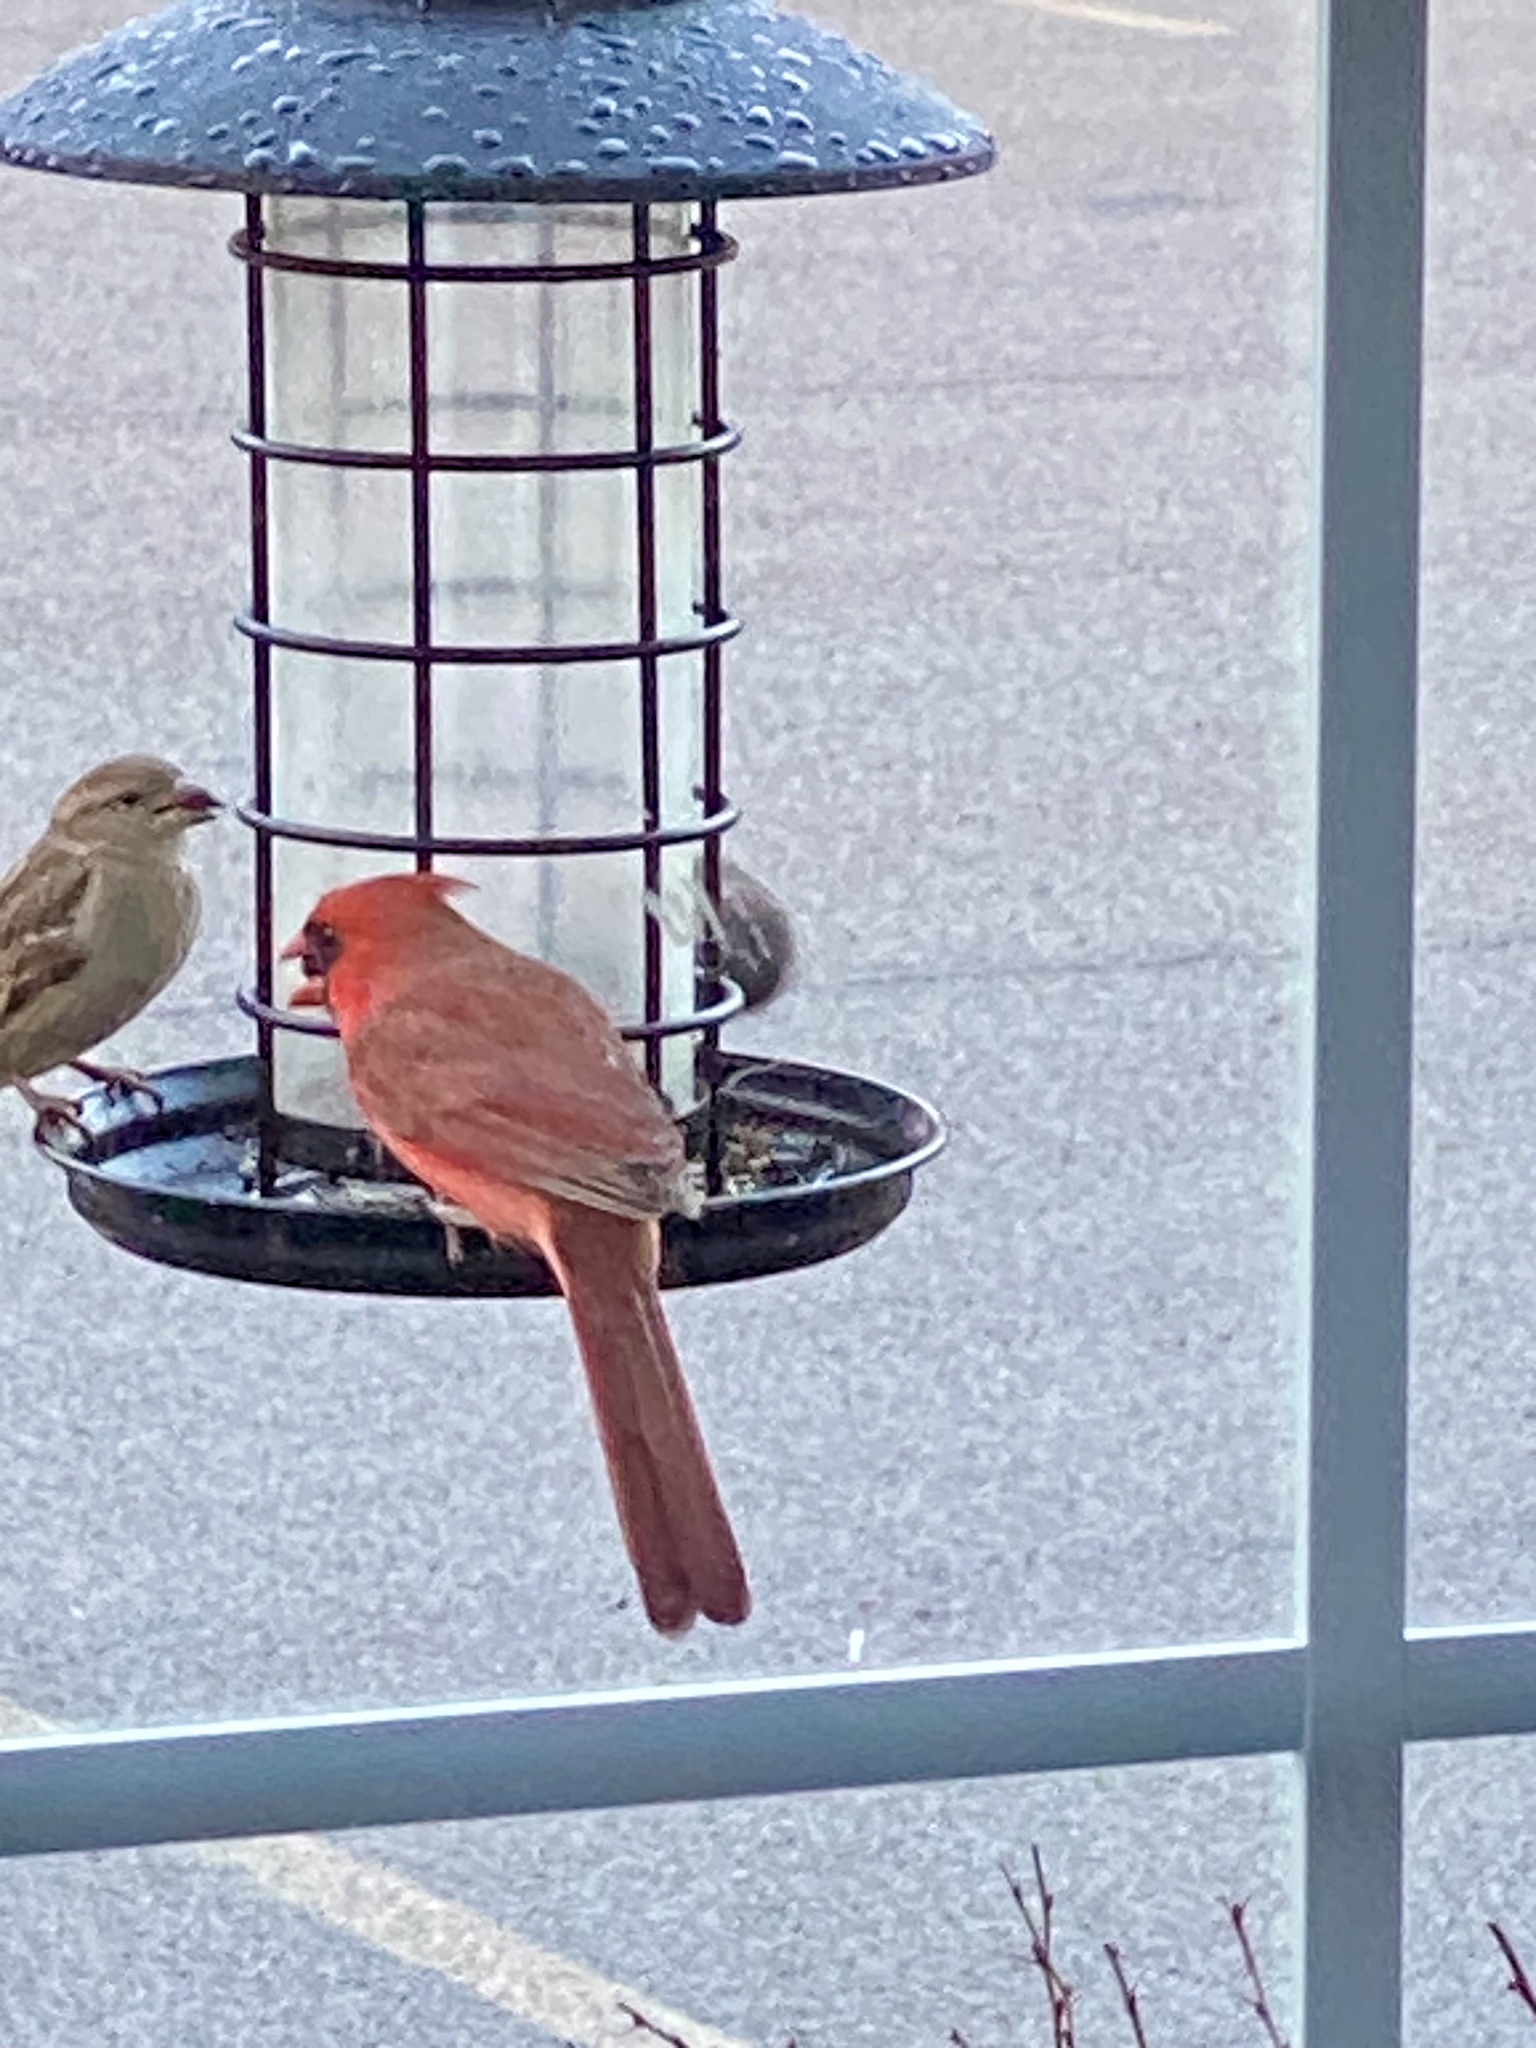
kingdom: Animalia
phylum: Chordata
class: Aves
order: Passeriformes
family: Cardinalidae
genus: Cardinalis
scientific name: Cardinalis cardinalis
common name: Northern cardinal
